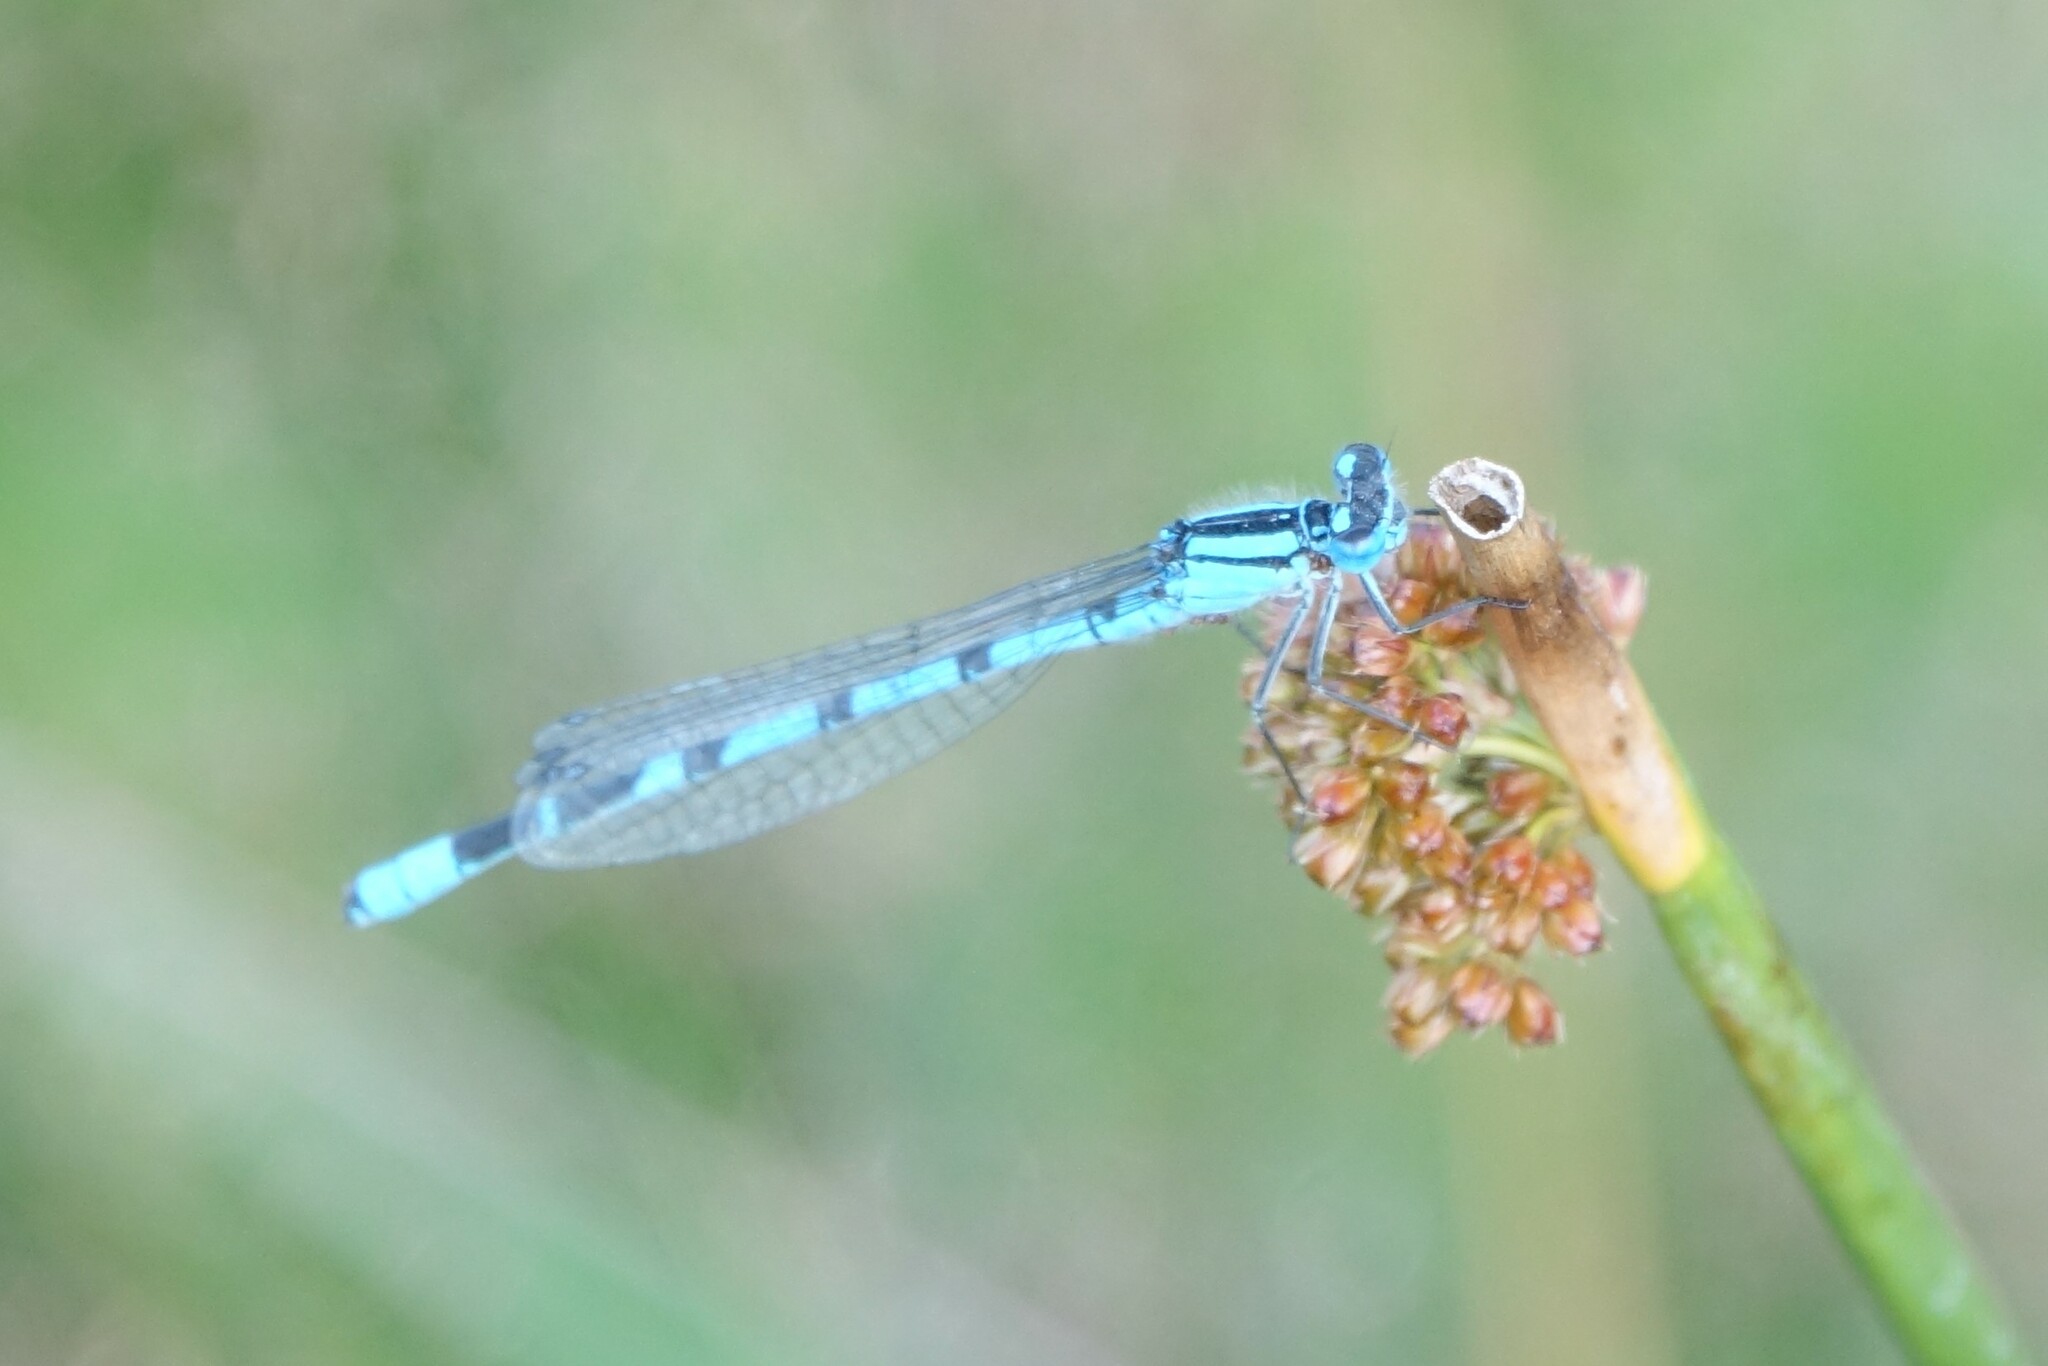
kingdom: Animalia
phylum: Arthropoda
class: Insecta
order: Odonata
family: Coenagrionidae
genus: Enallagma
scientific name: Enallagma cyathigerum
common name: Common blue damselfly
